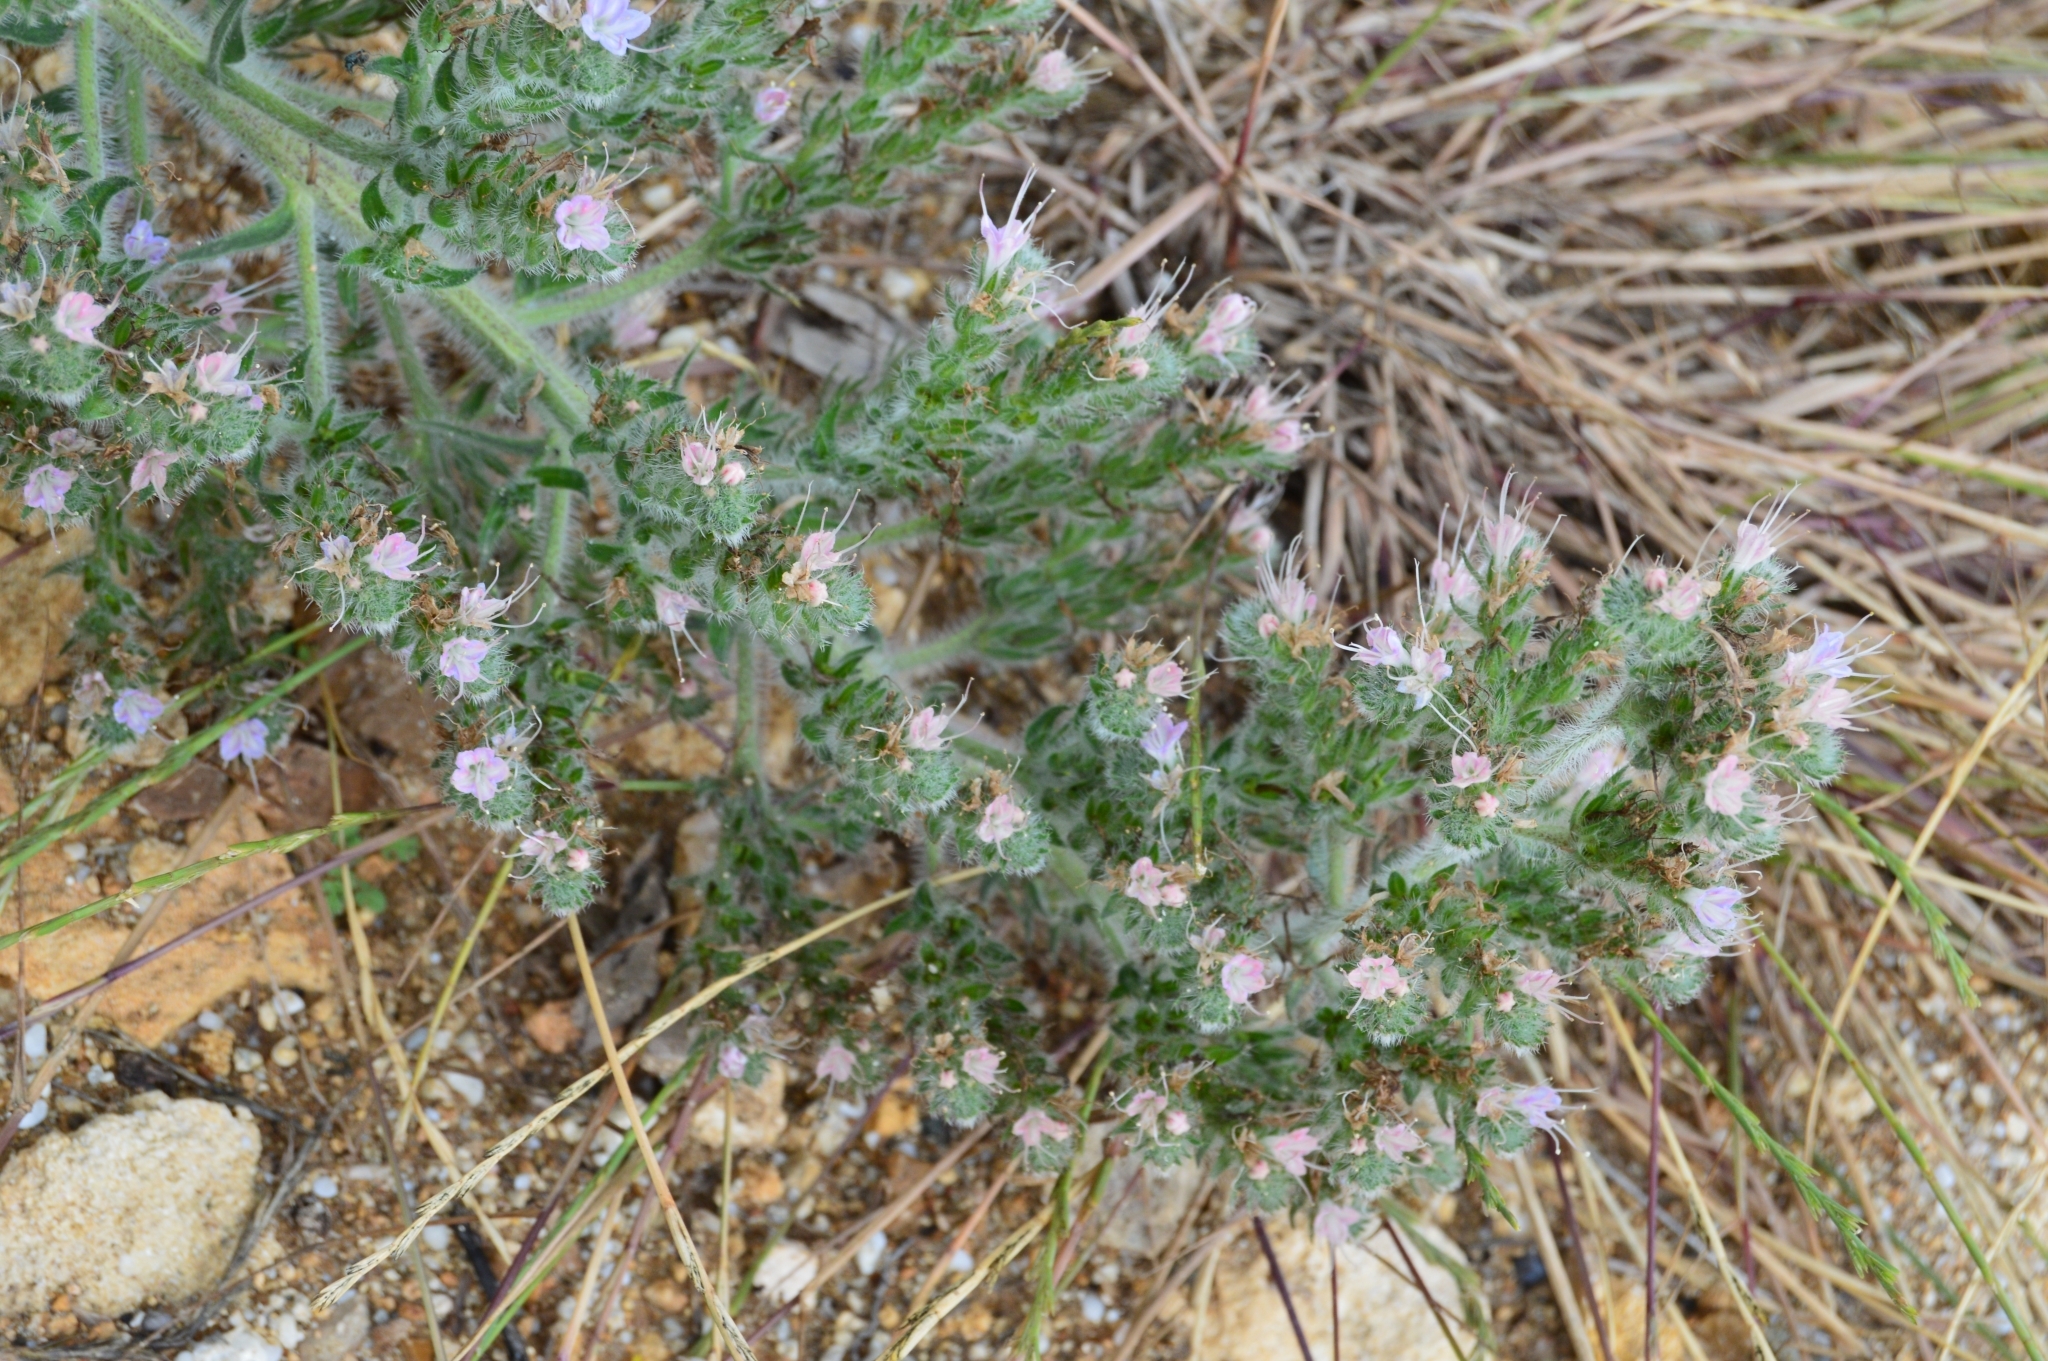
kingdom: Plantae
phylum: Tracheophyta
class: Magnoliopsida
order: Boraginales
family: Boraginaceae
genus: Echium
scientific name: Echium italicum
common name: Italian viper's bugloss
